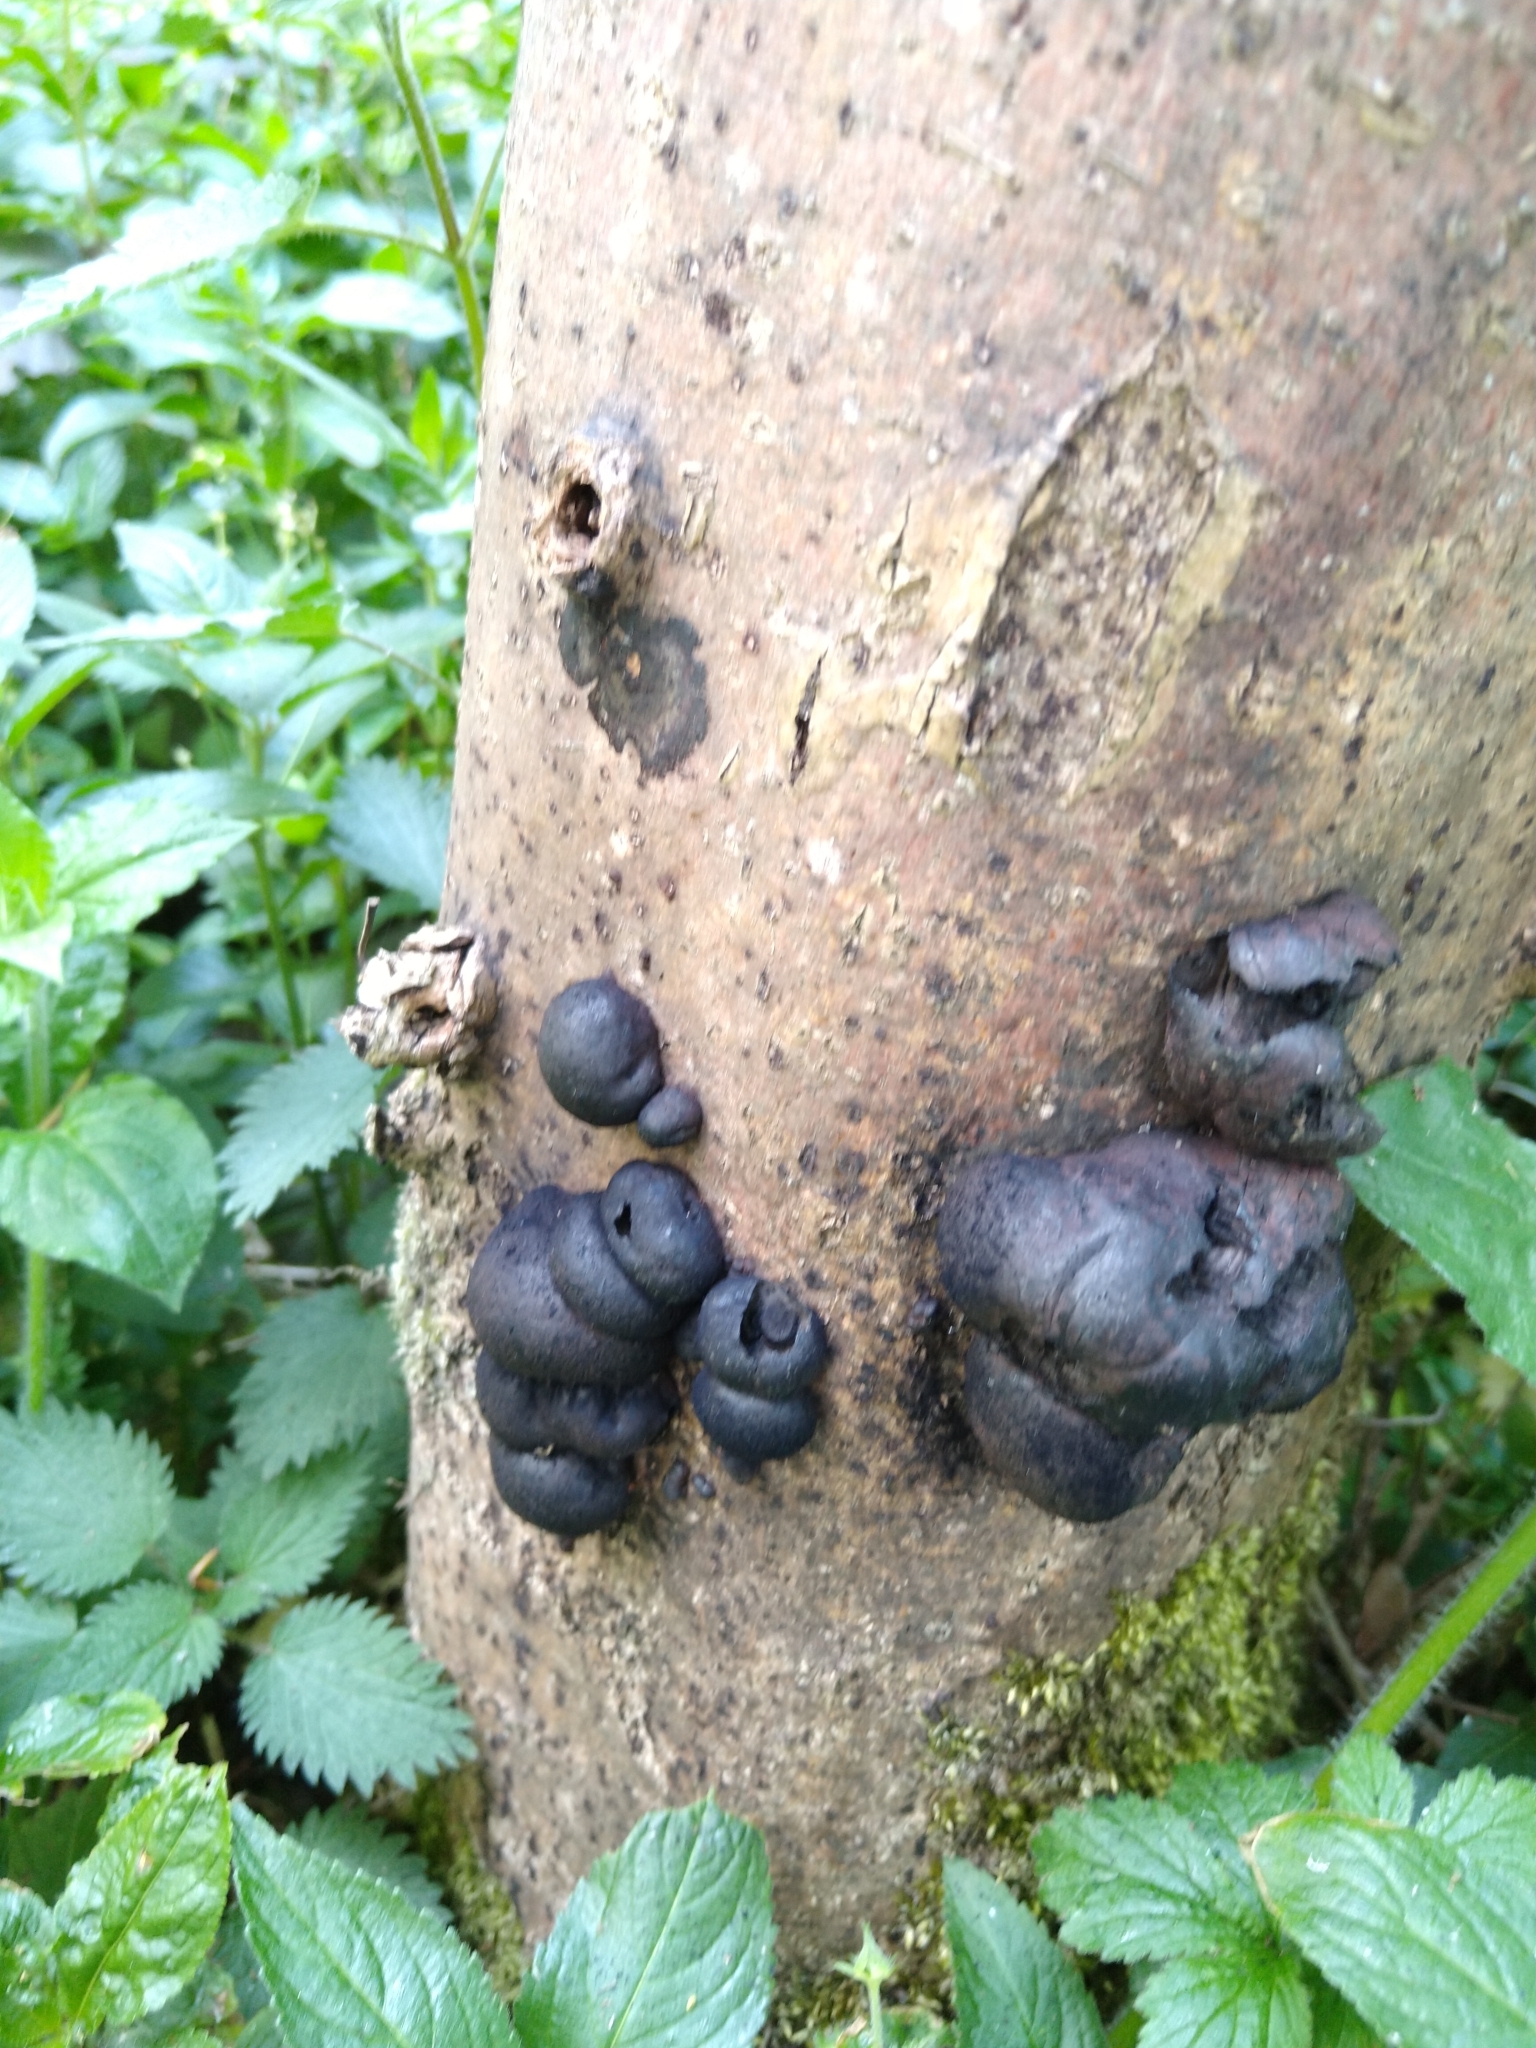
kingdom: Fungi
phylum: Ascomycota
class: Sordariomycetes
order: Xylariales
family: Hypoxylaceae
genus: Daldinia
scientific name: Daldinia concentrica
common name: Cramp balls
